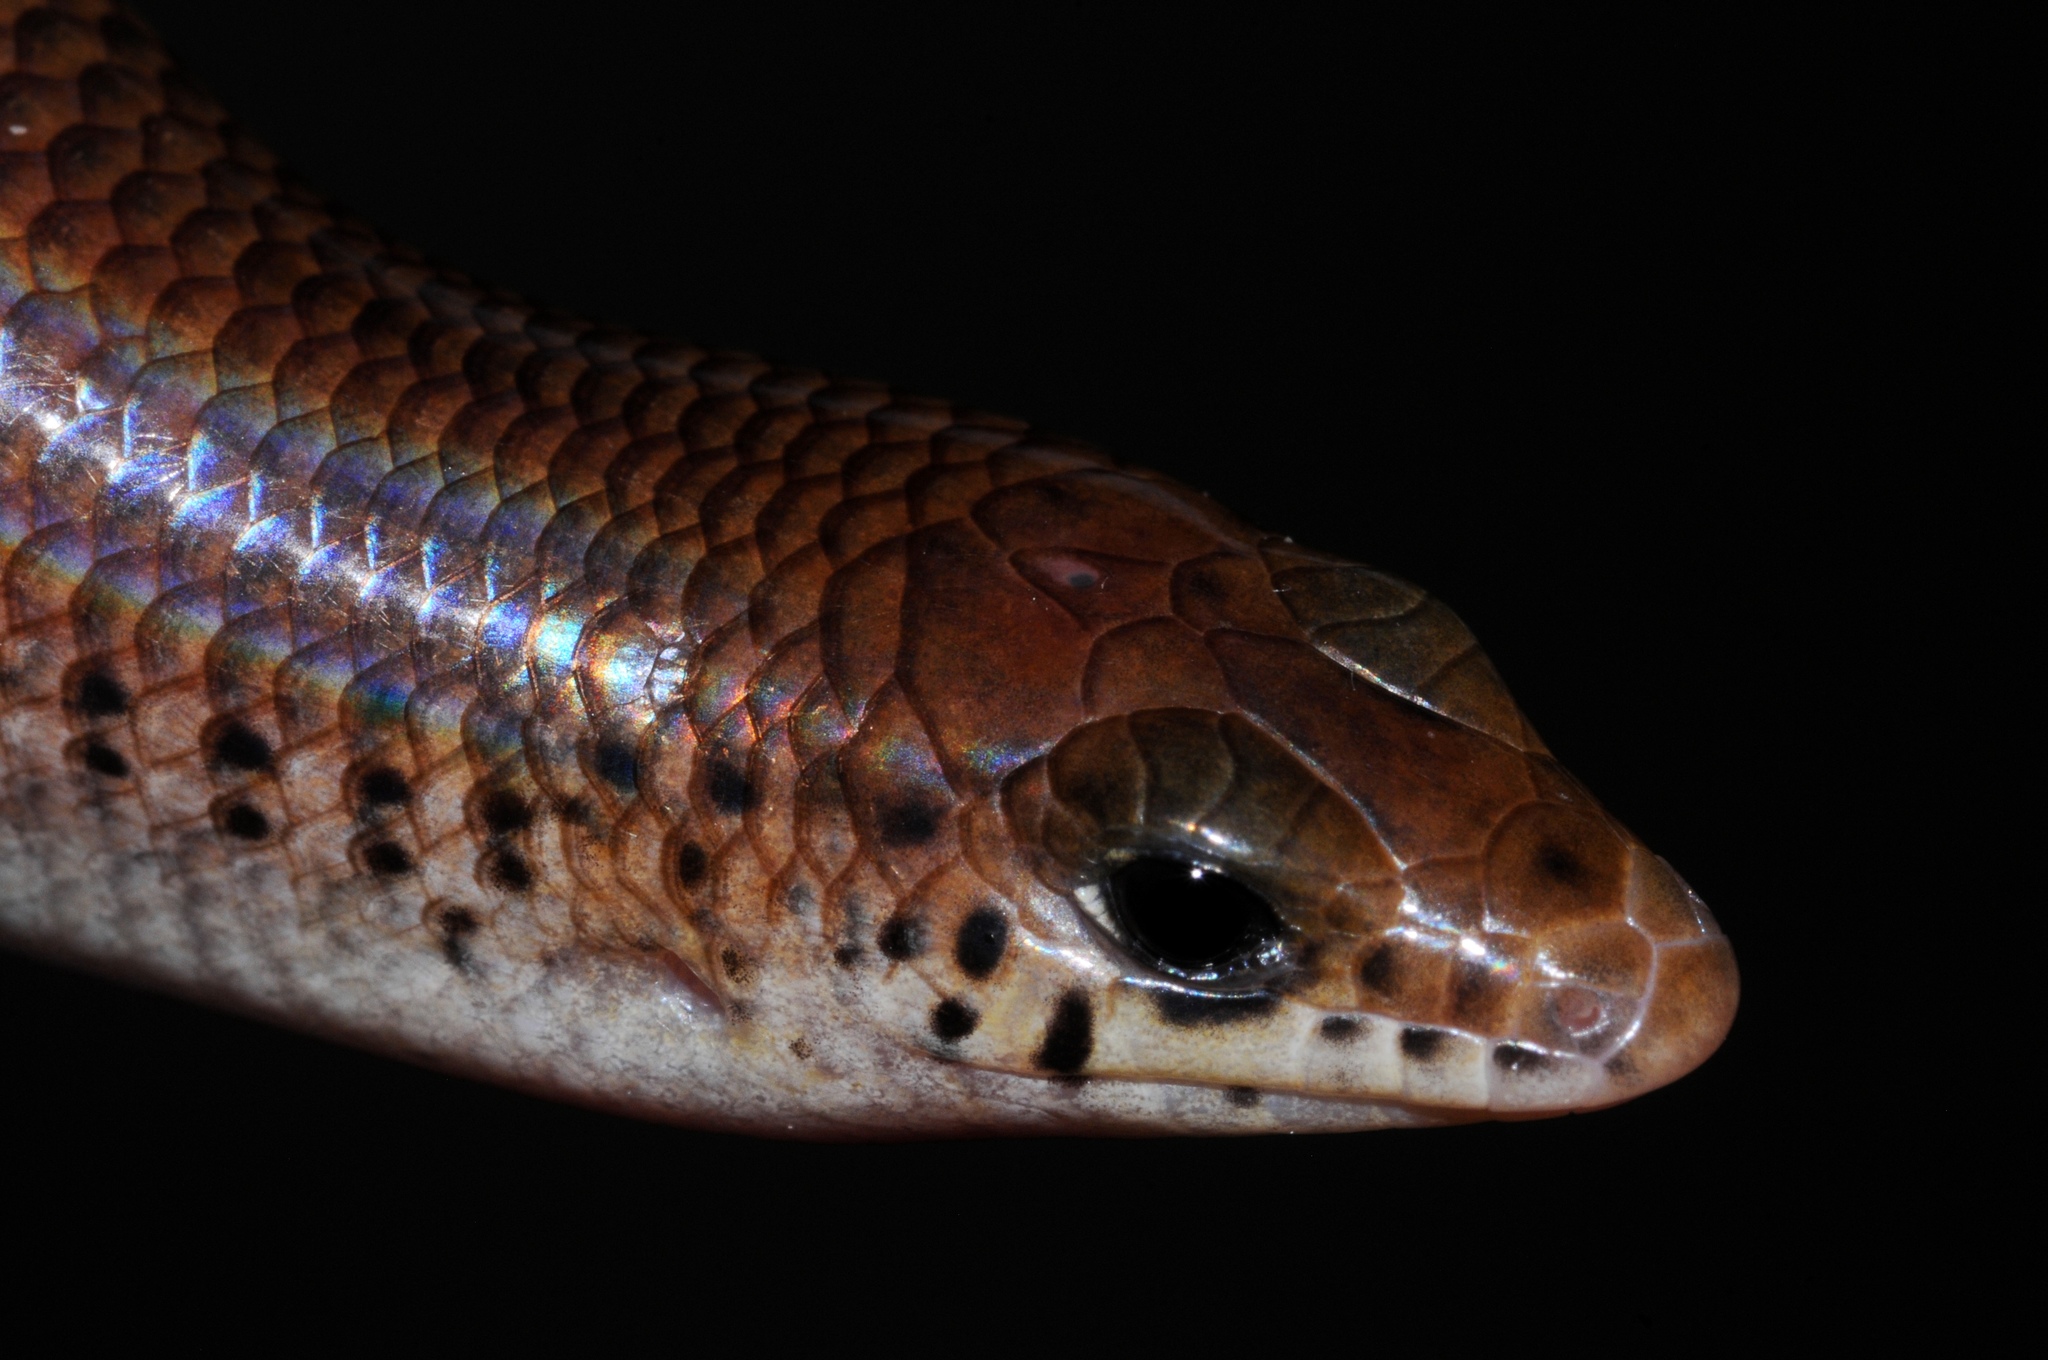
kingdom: Animalia
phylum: Chordata
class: Squamata
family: Scincidae
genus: Mochlus
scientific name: Mochlus sundevallii
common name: Peters' eyelid skink
